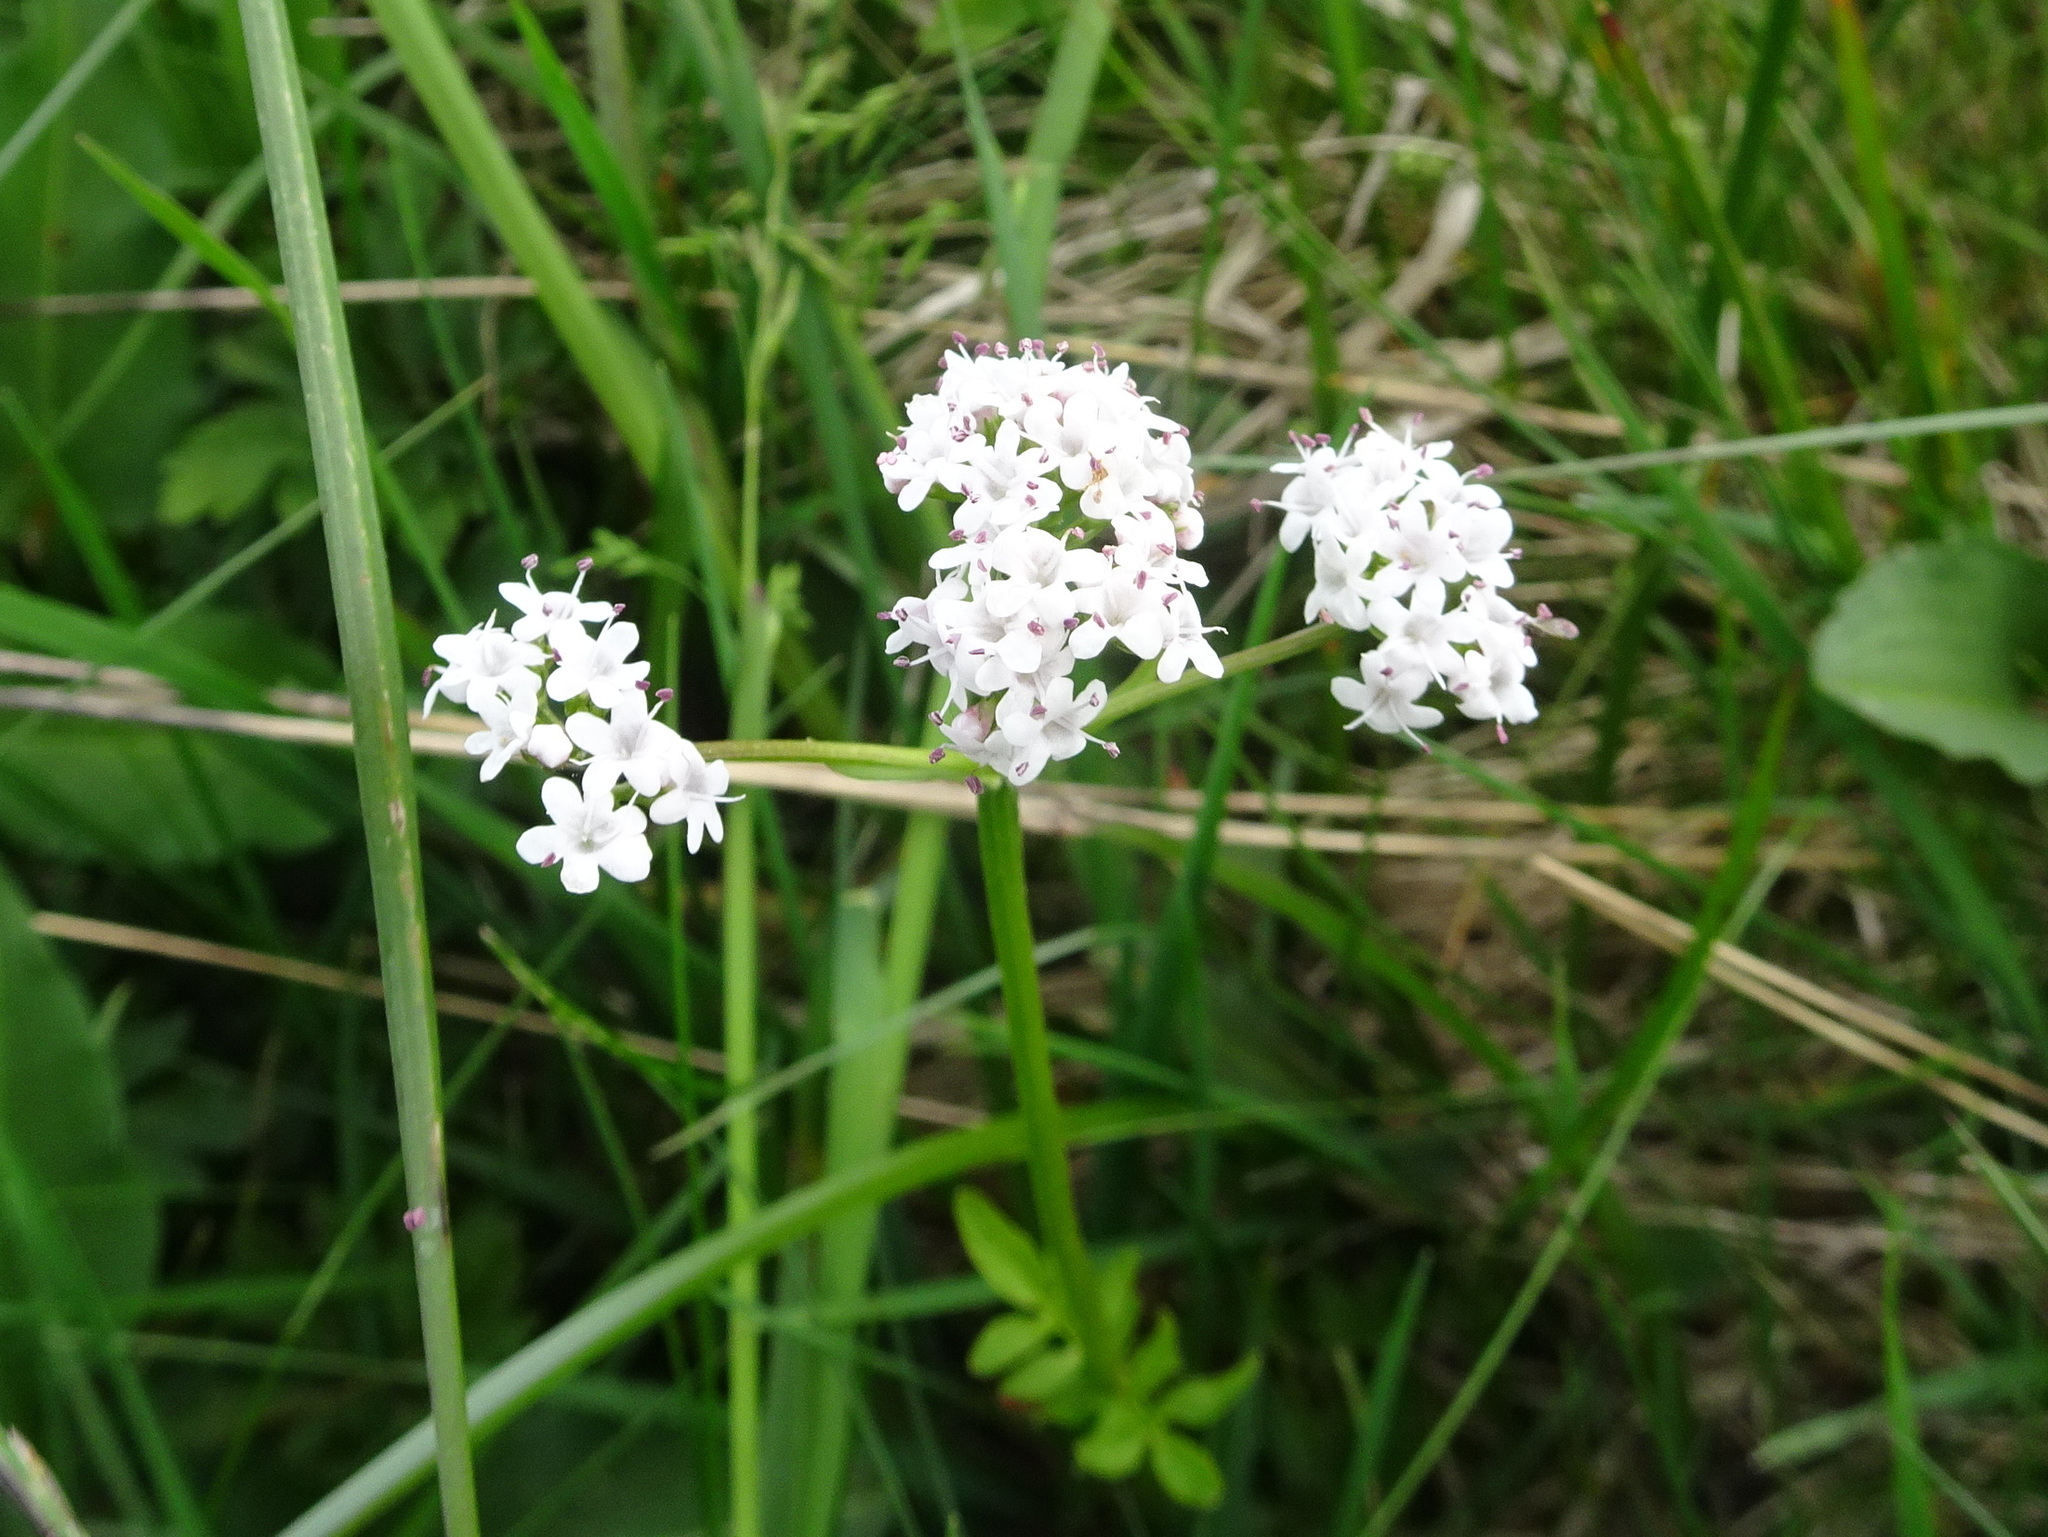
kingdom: Plantae
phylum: Tracheophyta
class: Magnoliopsida
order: Dipsacales
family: Caprifoliaceae
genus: Valeriana
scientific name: Valeriana dioica
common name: Marsh valerian
